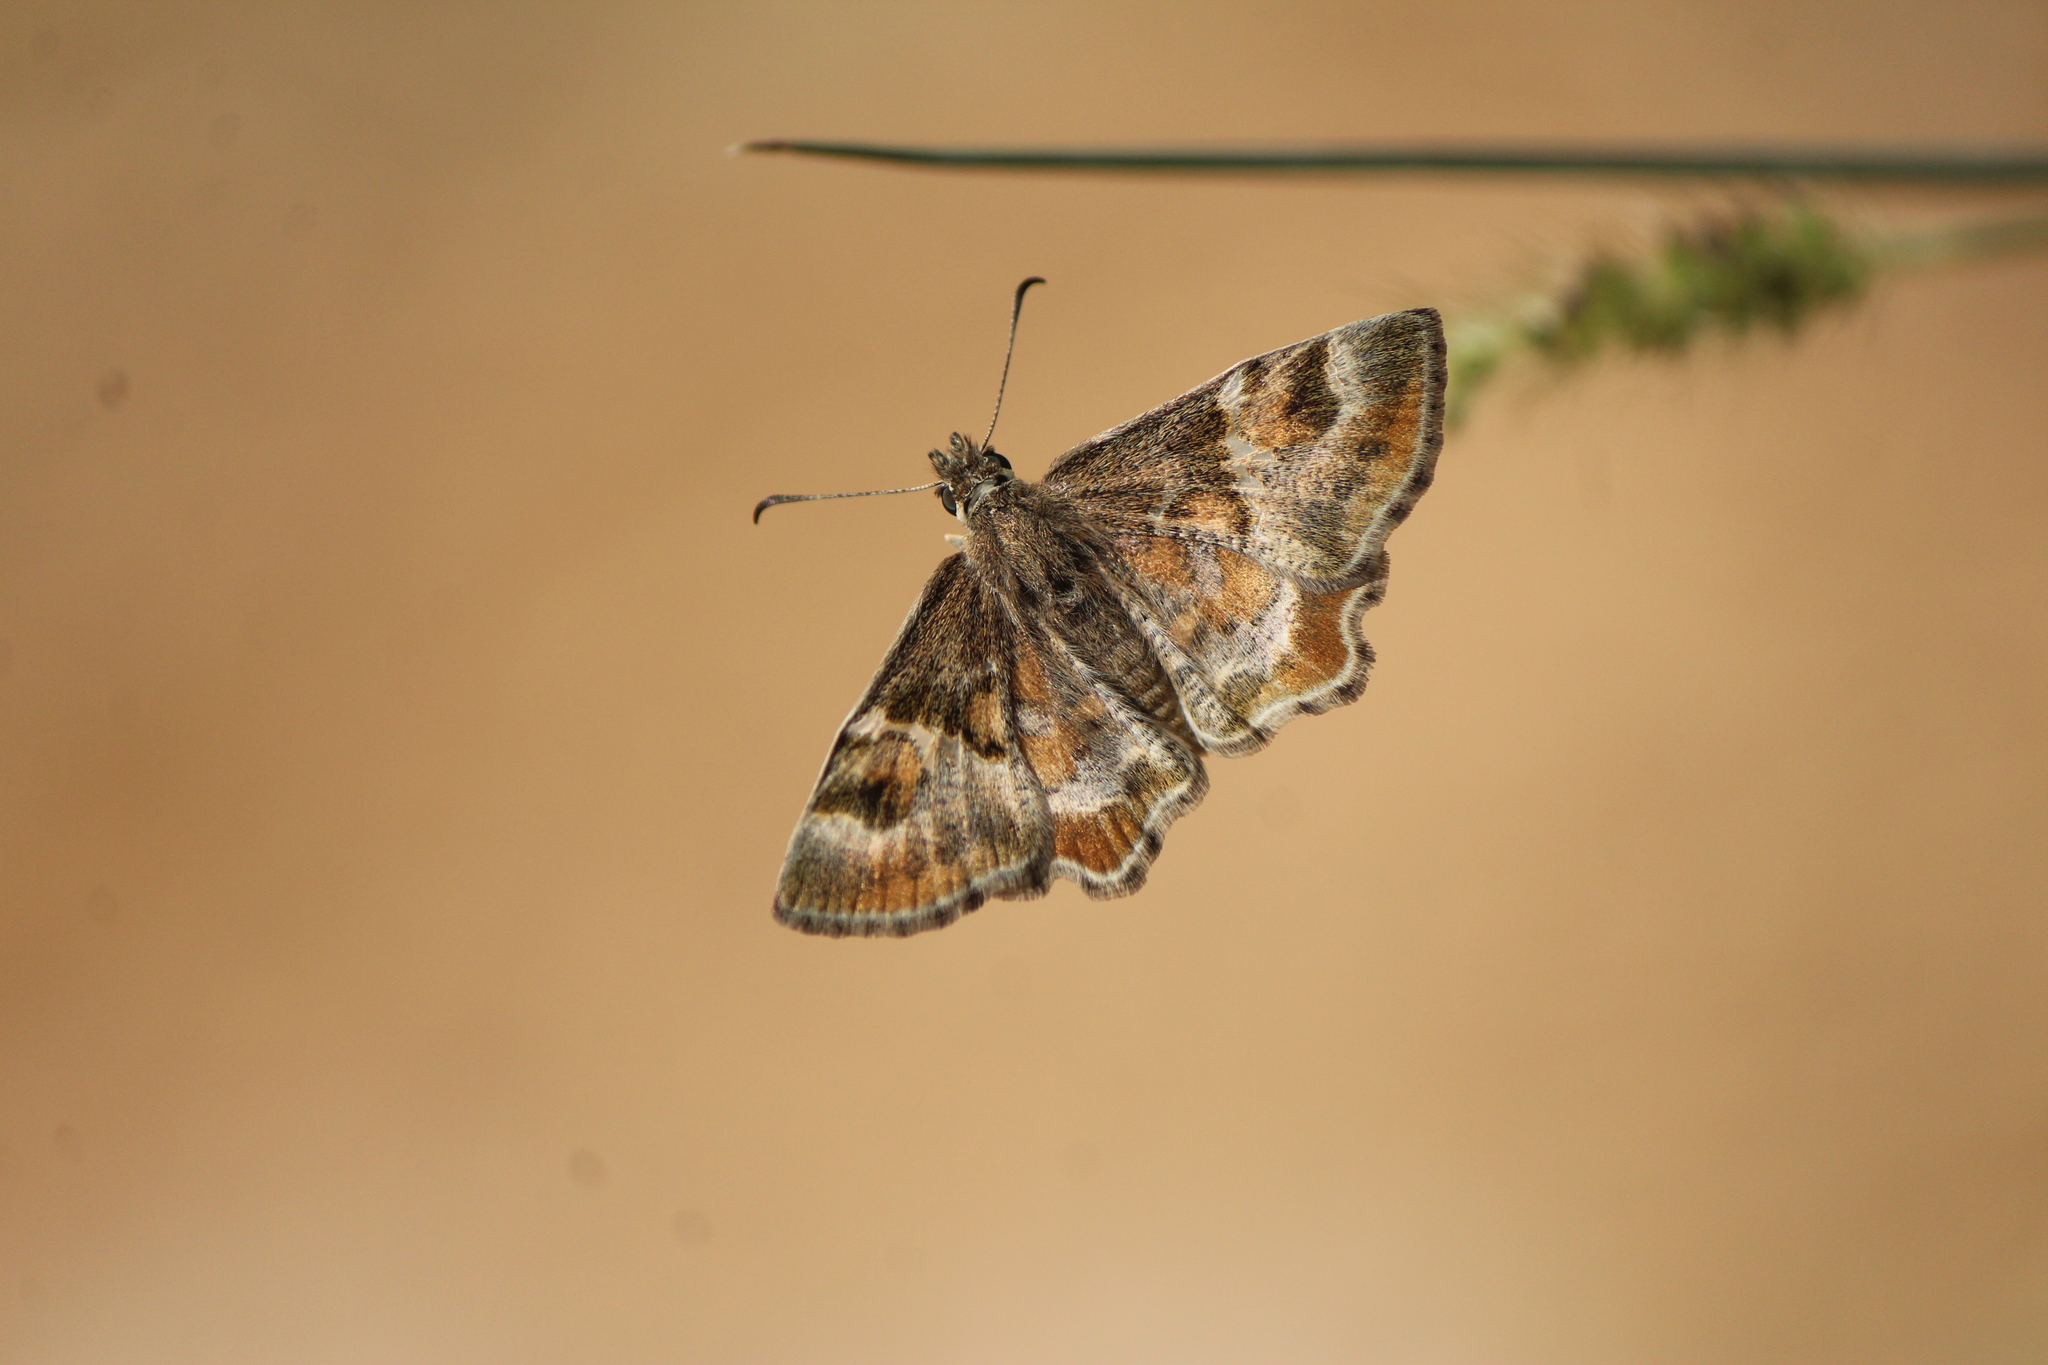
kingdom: Animalia
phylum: Arthropoda
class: Insecta
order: Lepidoptera
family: Hesperiidae
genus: Systasea
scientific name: Systasea pulverulenta
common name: Texas powdered skipper
